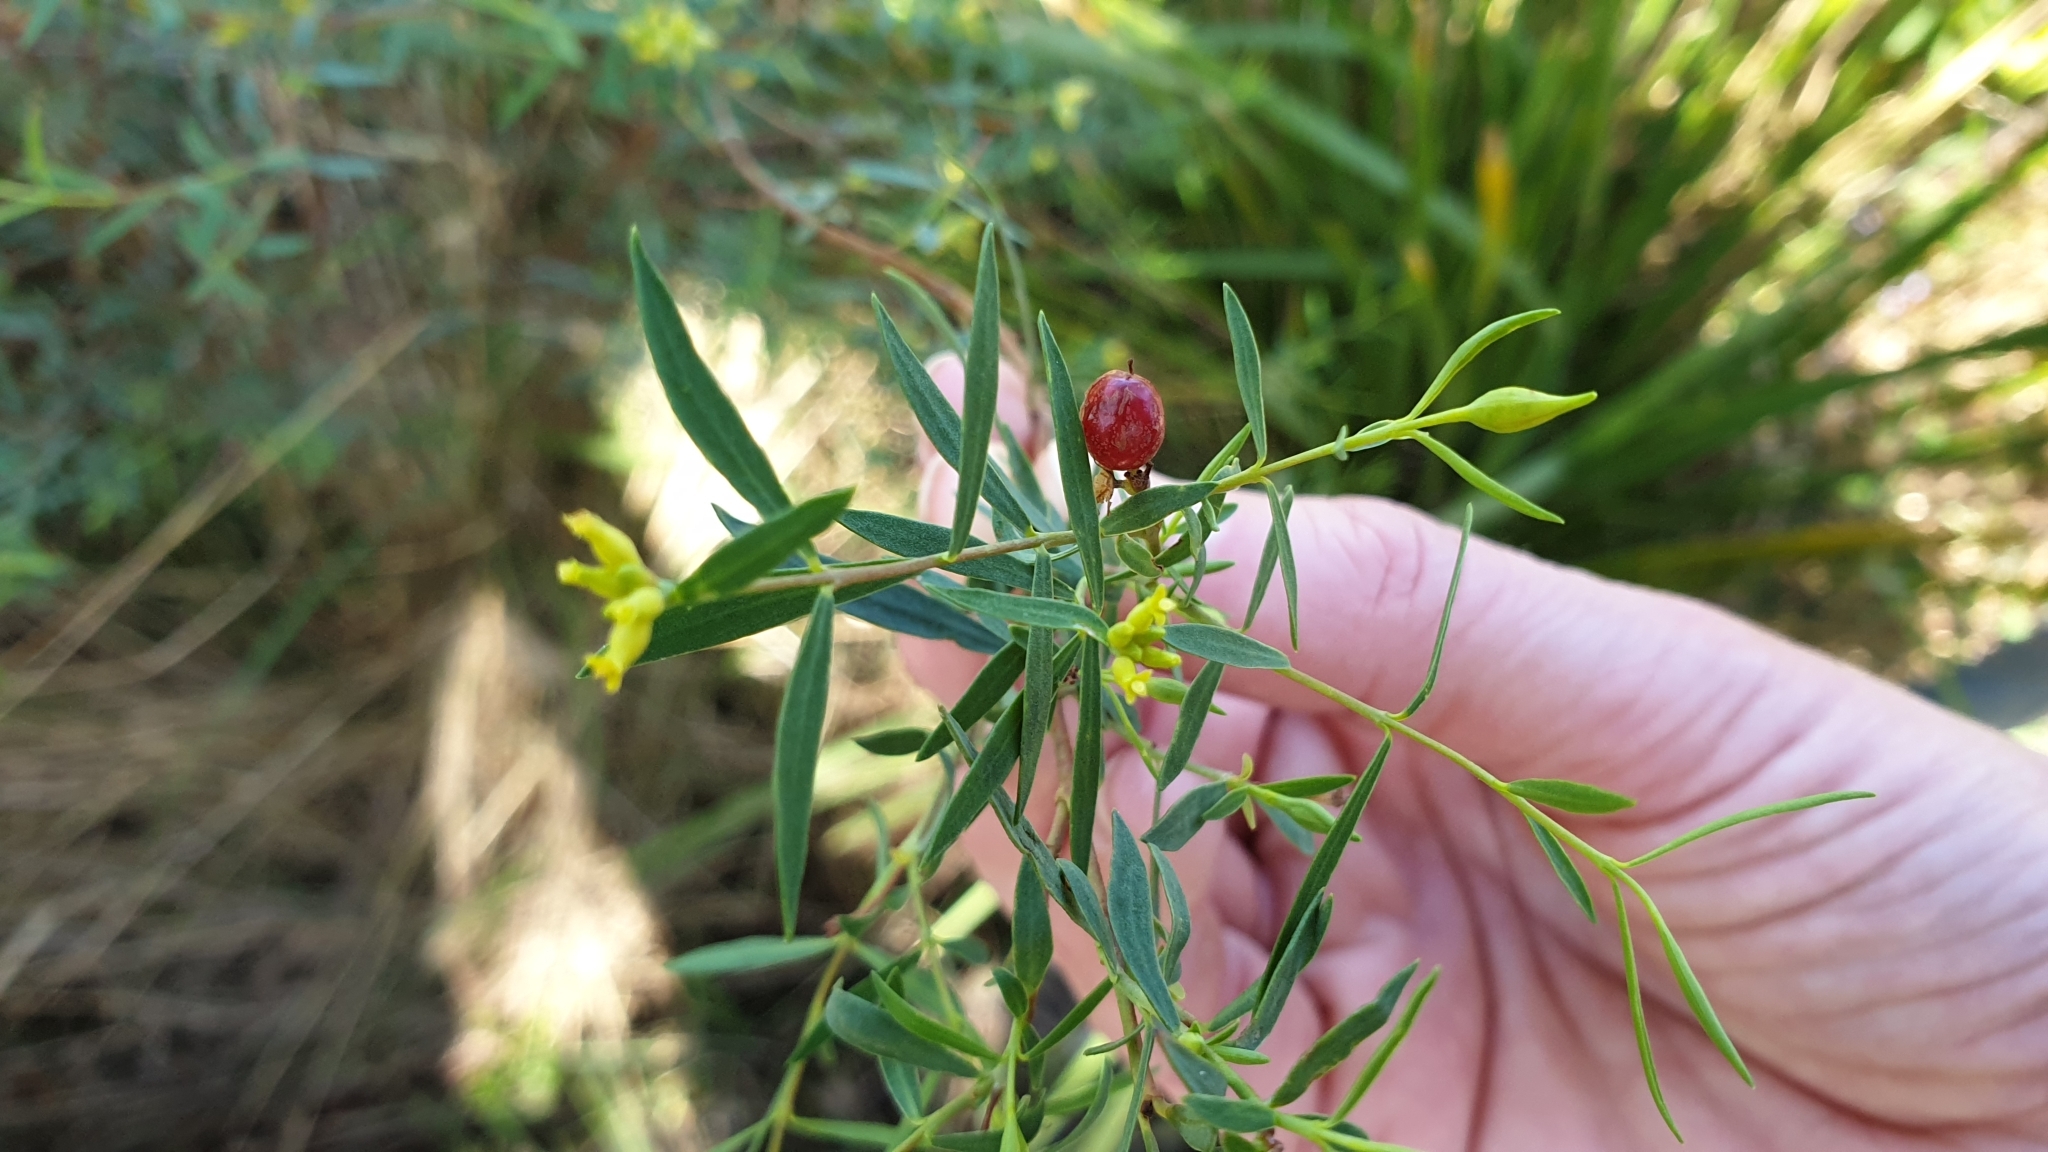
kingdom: Plantae
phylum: Tracheophyta
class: Magnoliopsida
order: Malvales
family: Thymelaeaceae
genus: Pimelea
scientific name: Pimelea neoanglica
